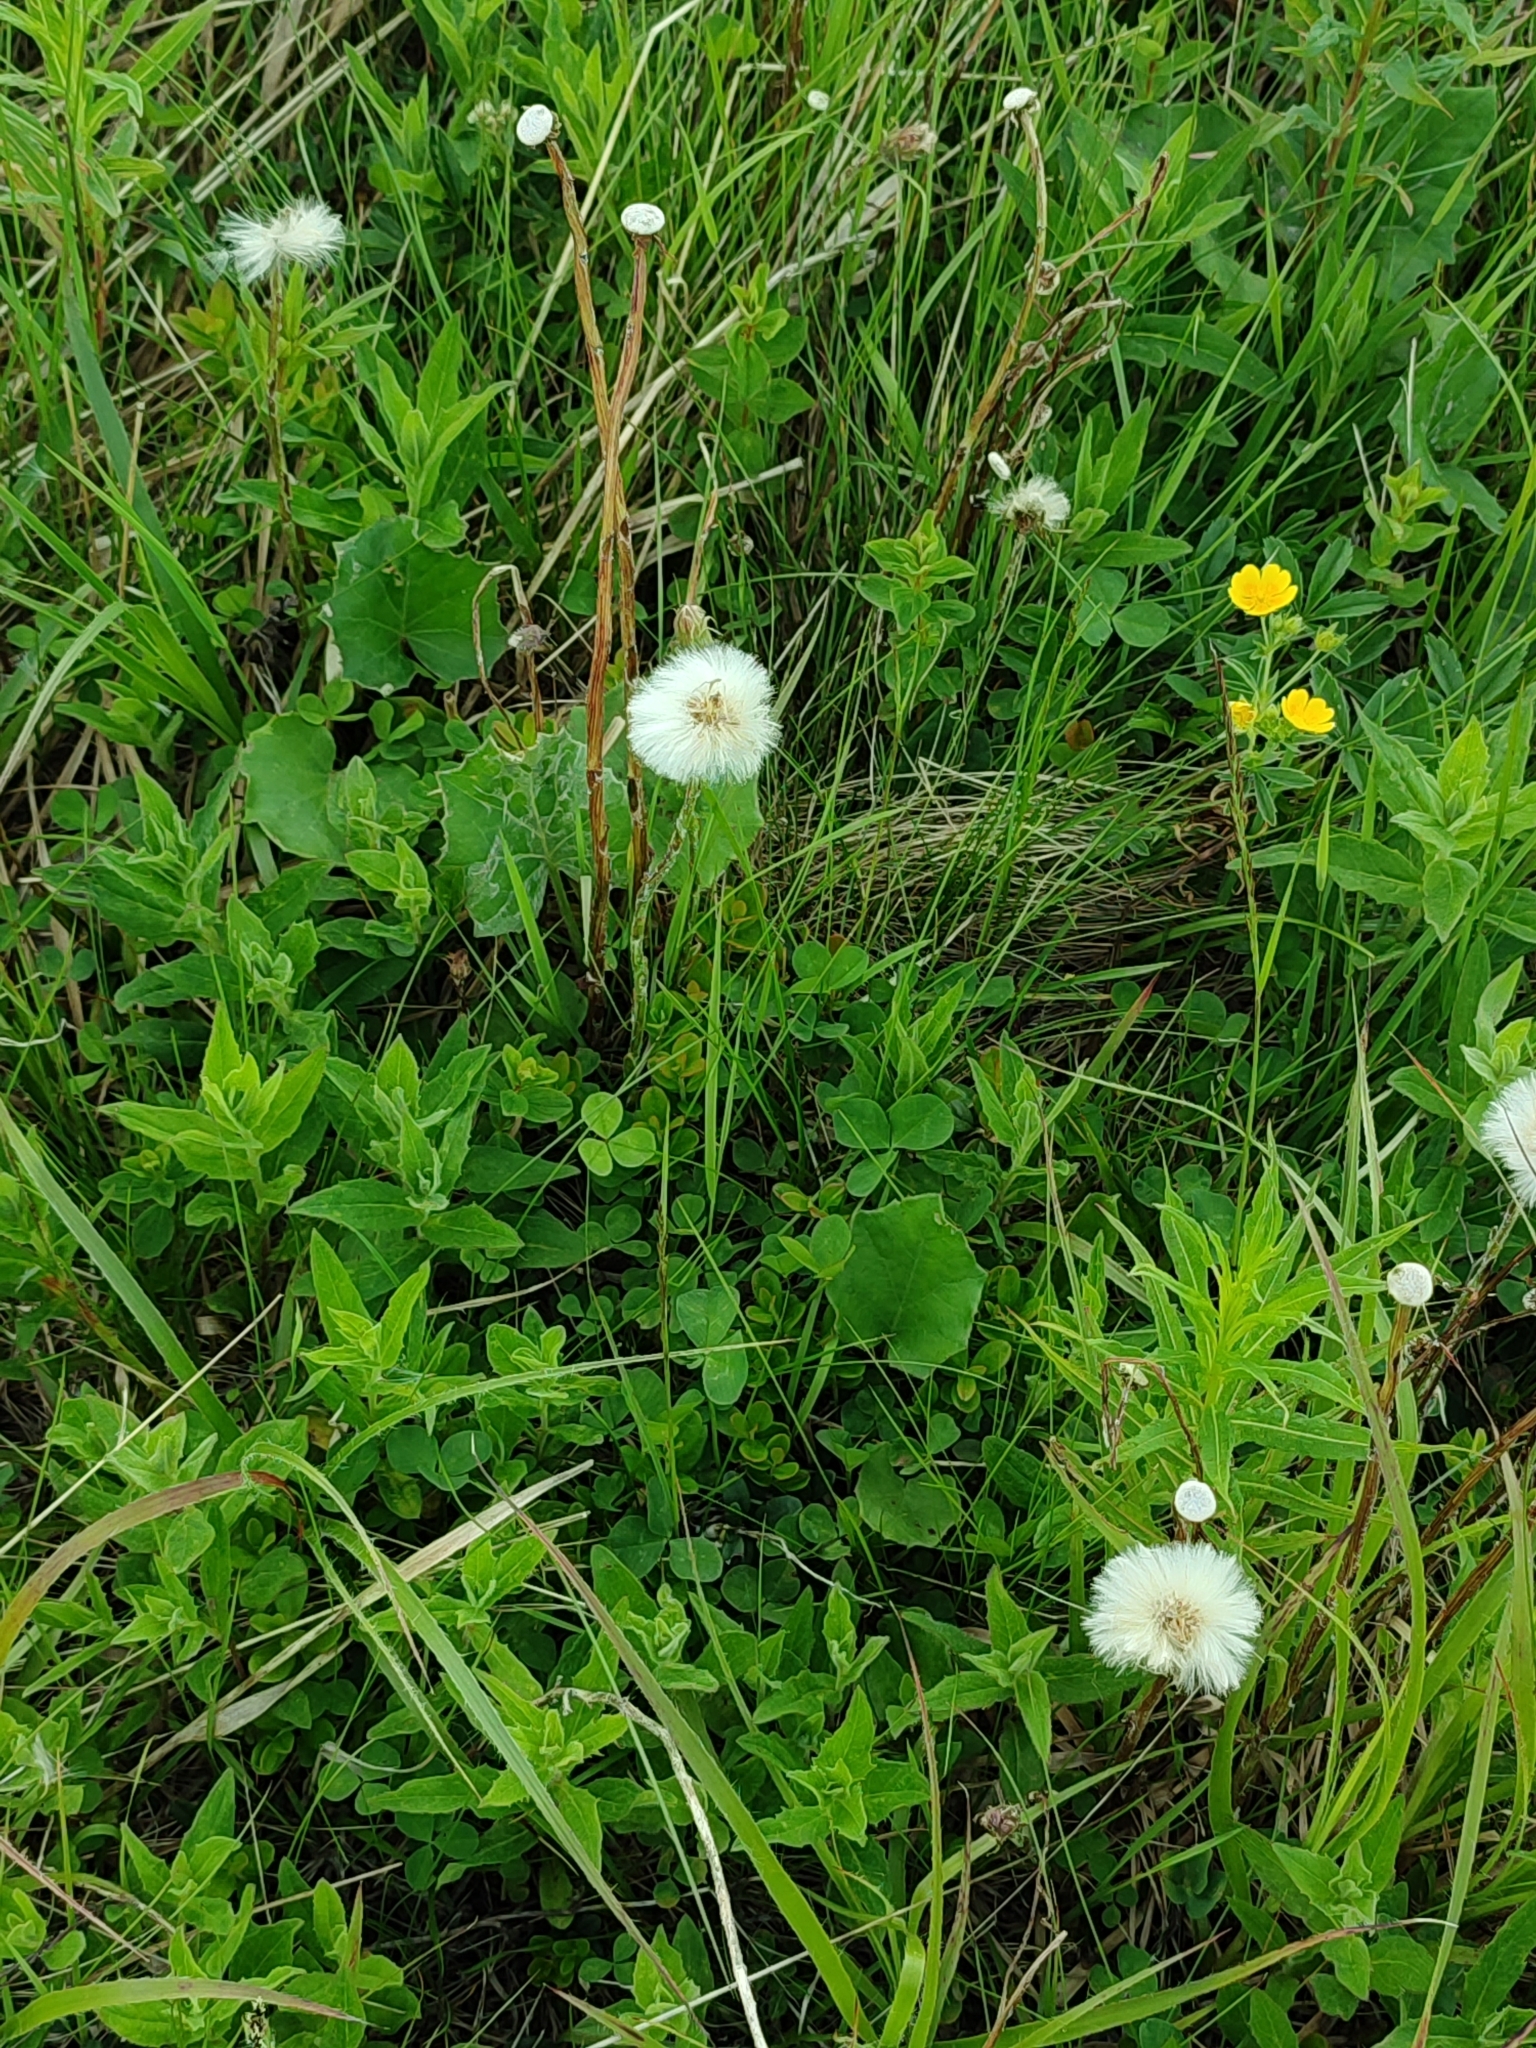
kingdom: Plantae
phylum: Tracheophyta
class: Magnoliopsida
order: Asterales
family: Asteraceae
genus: Tussilago
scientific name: Tussilago farfara
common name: Coltsfoot
